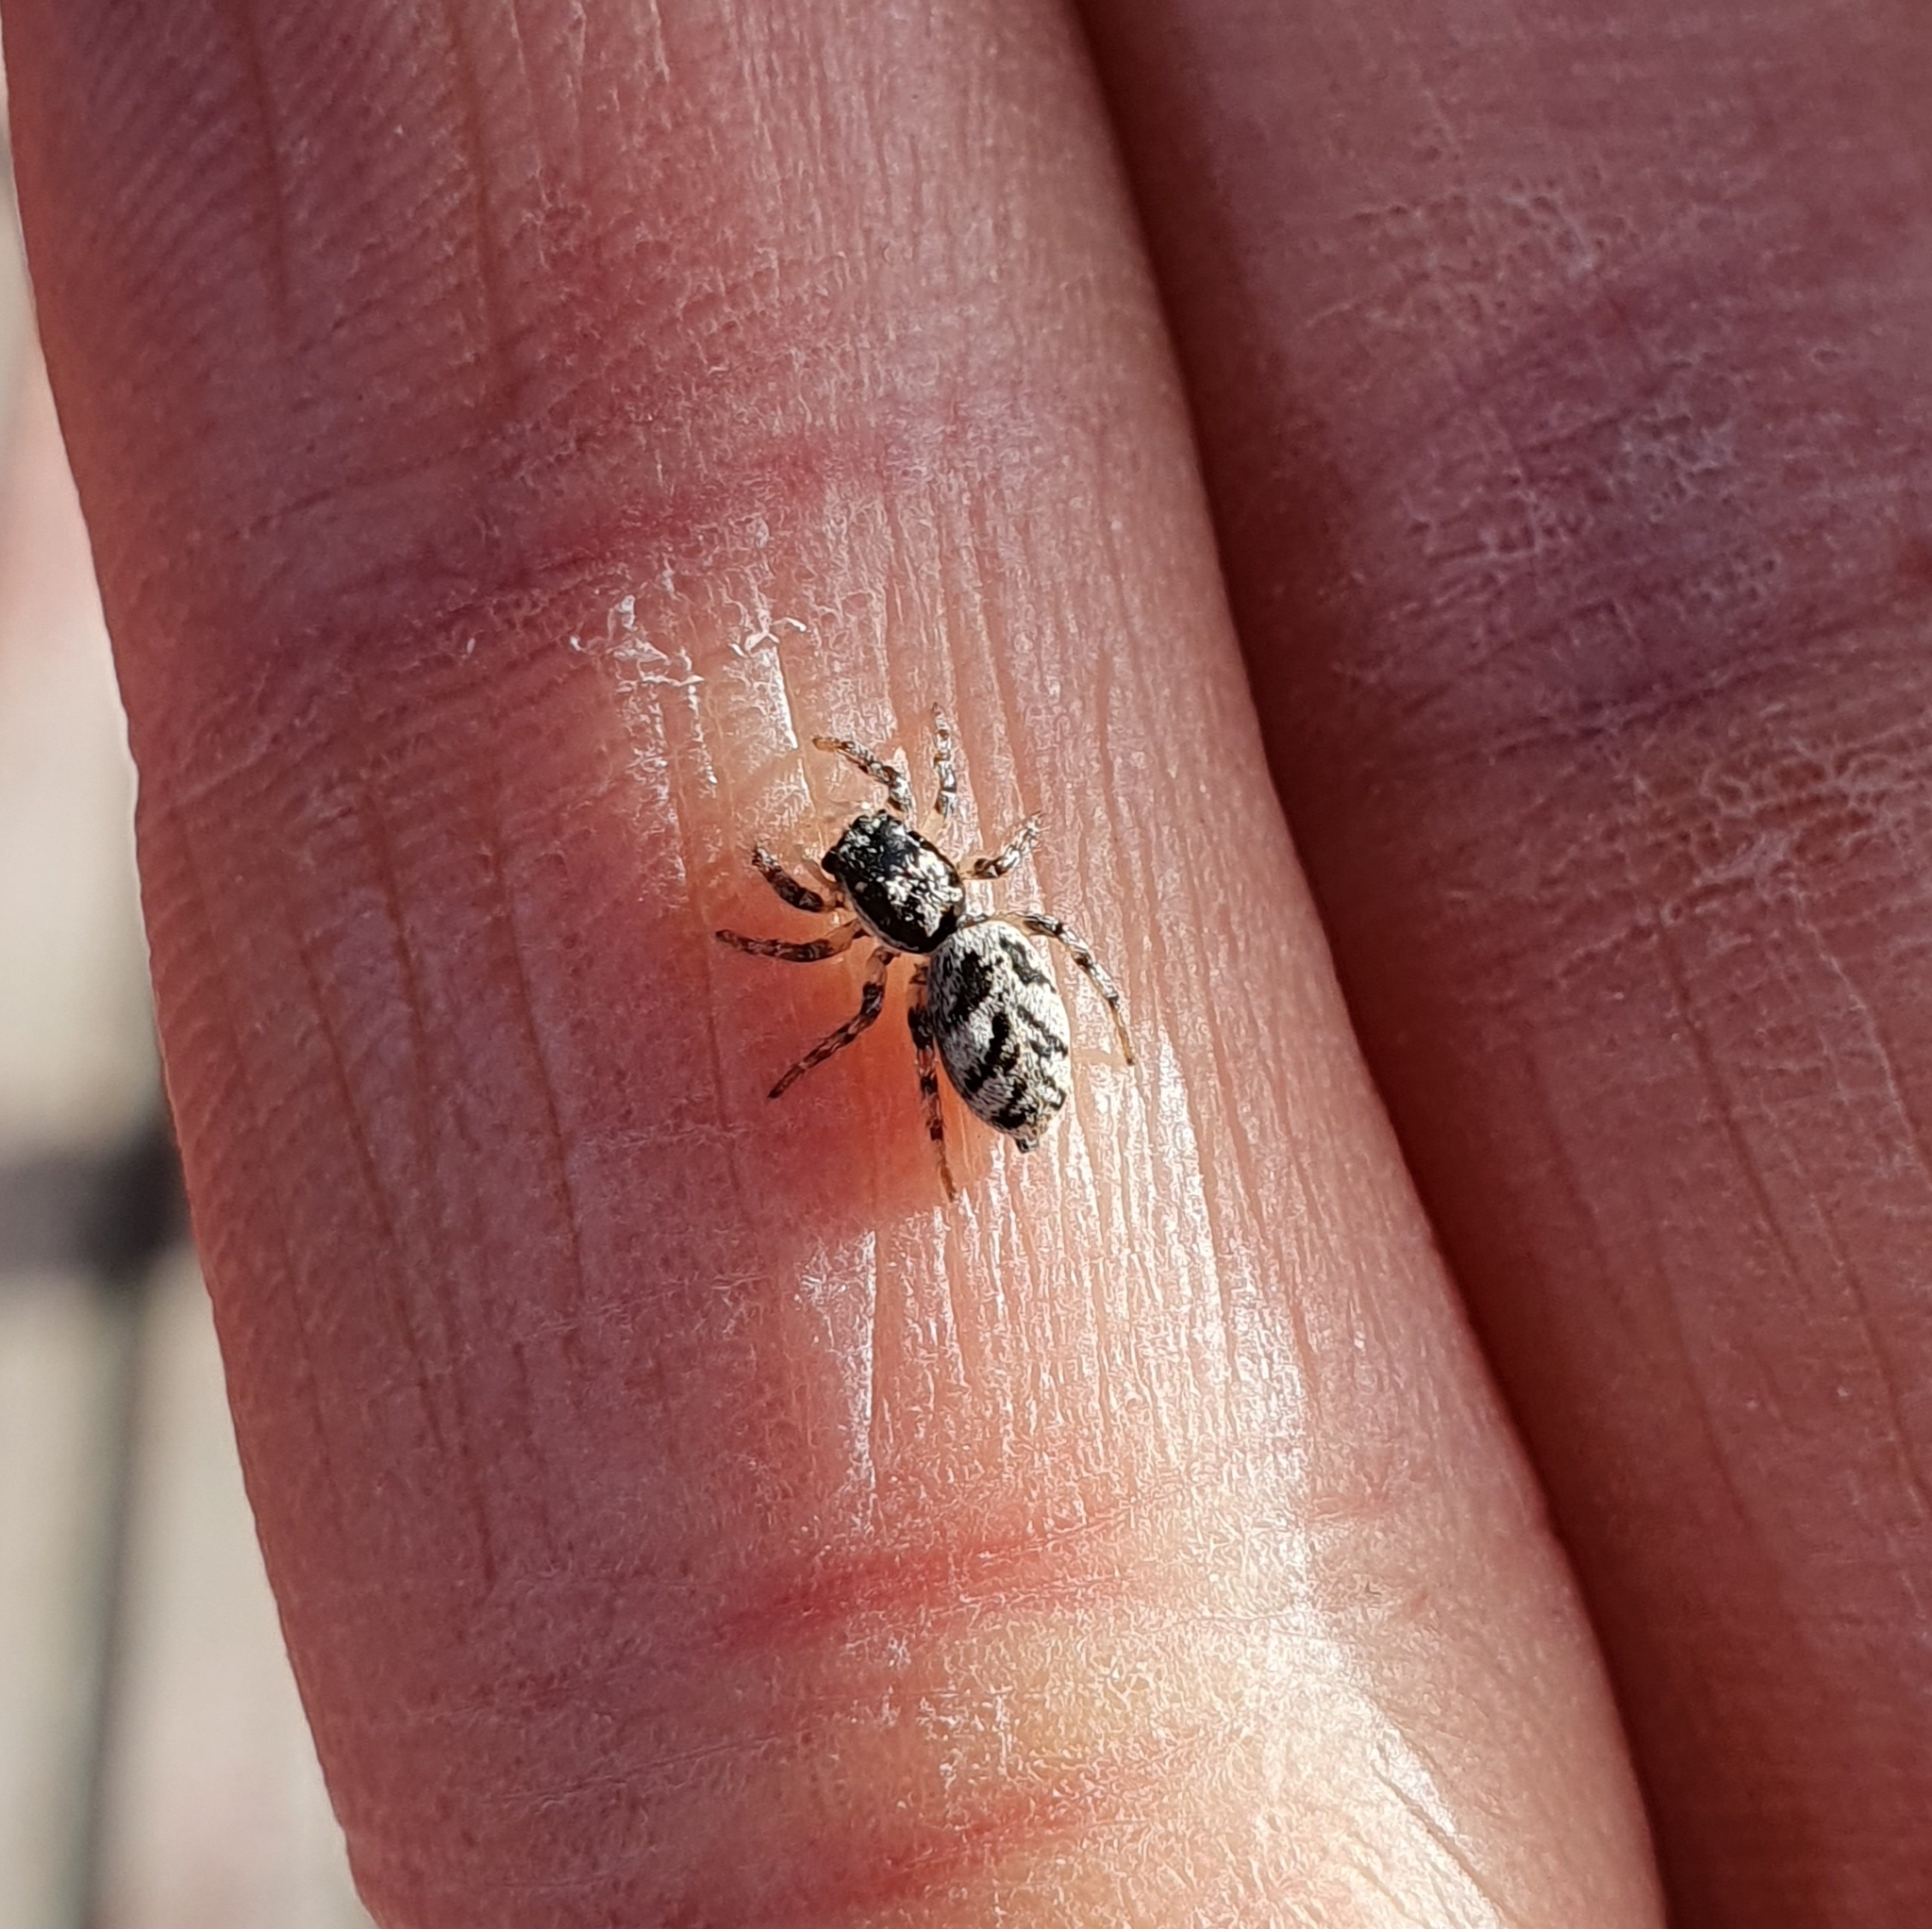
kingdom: Animalia
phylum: Arthropoda
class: Arachnida
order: Araneae
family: Salticidae
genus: Salticus
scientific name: Salticus cingulatus
